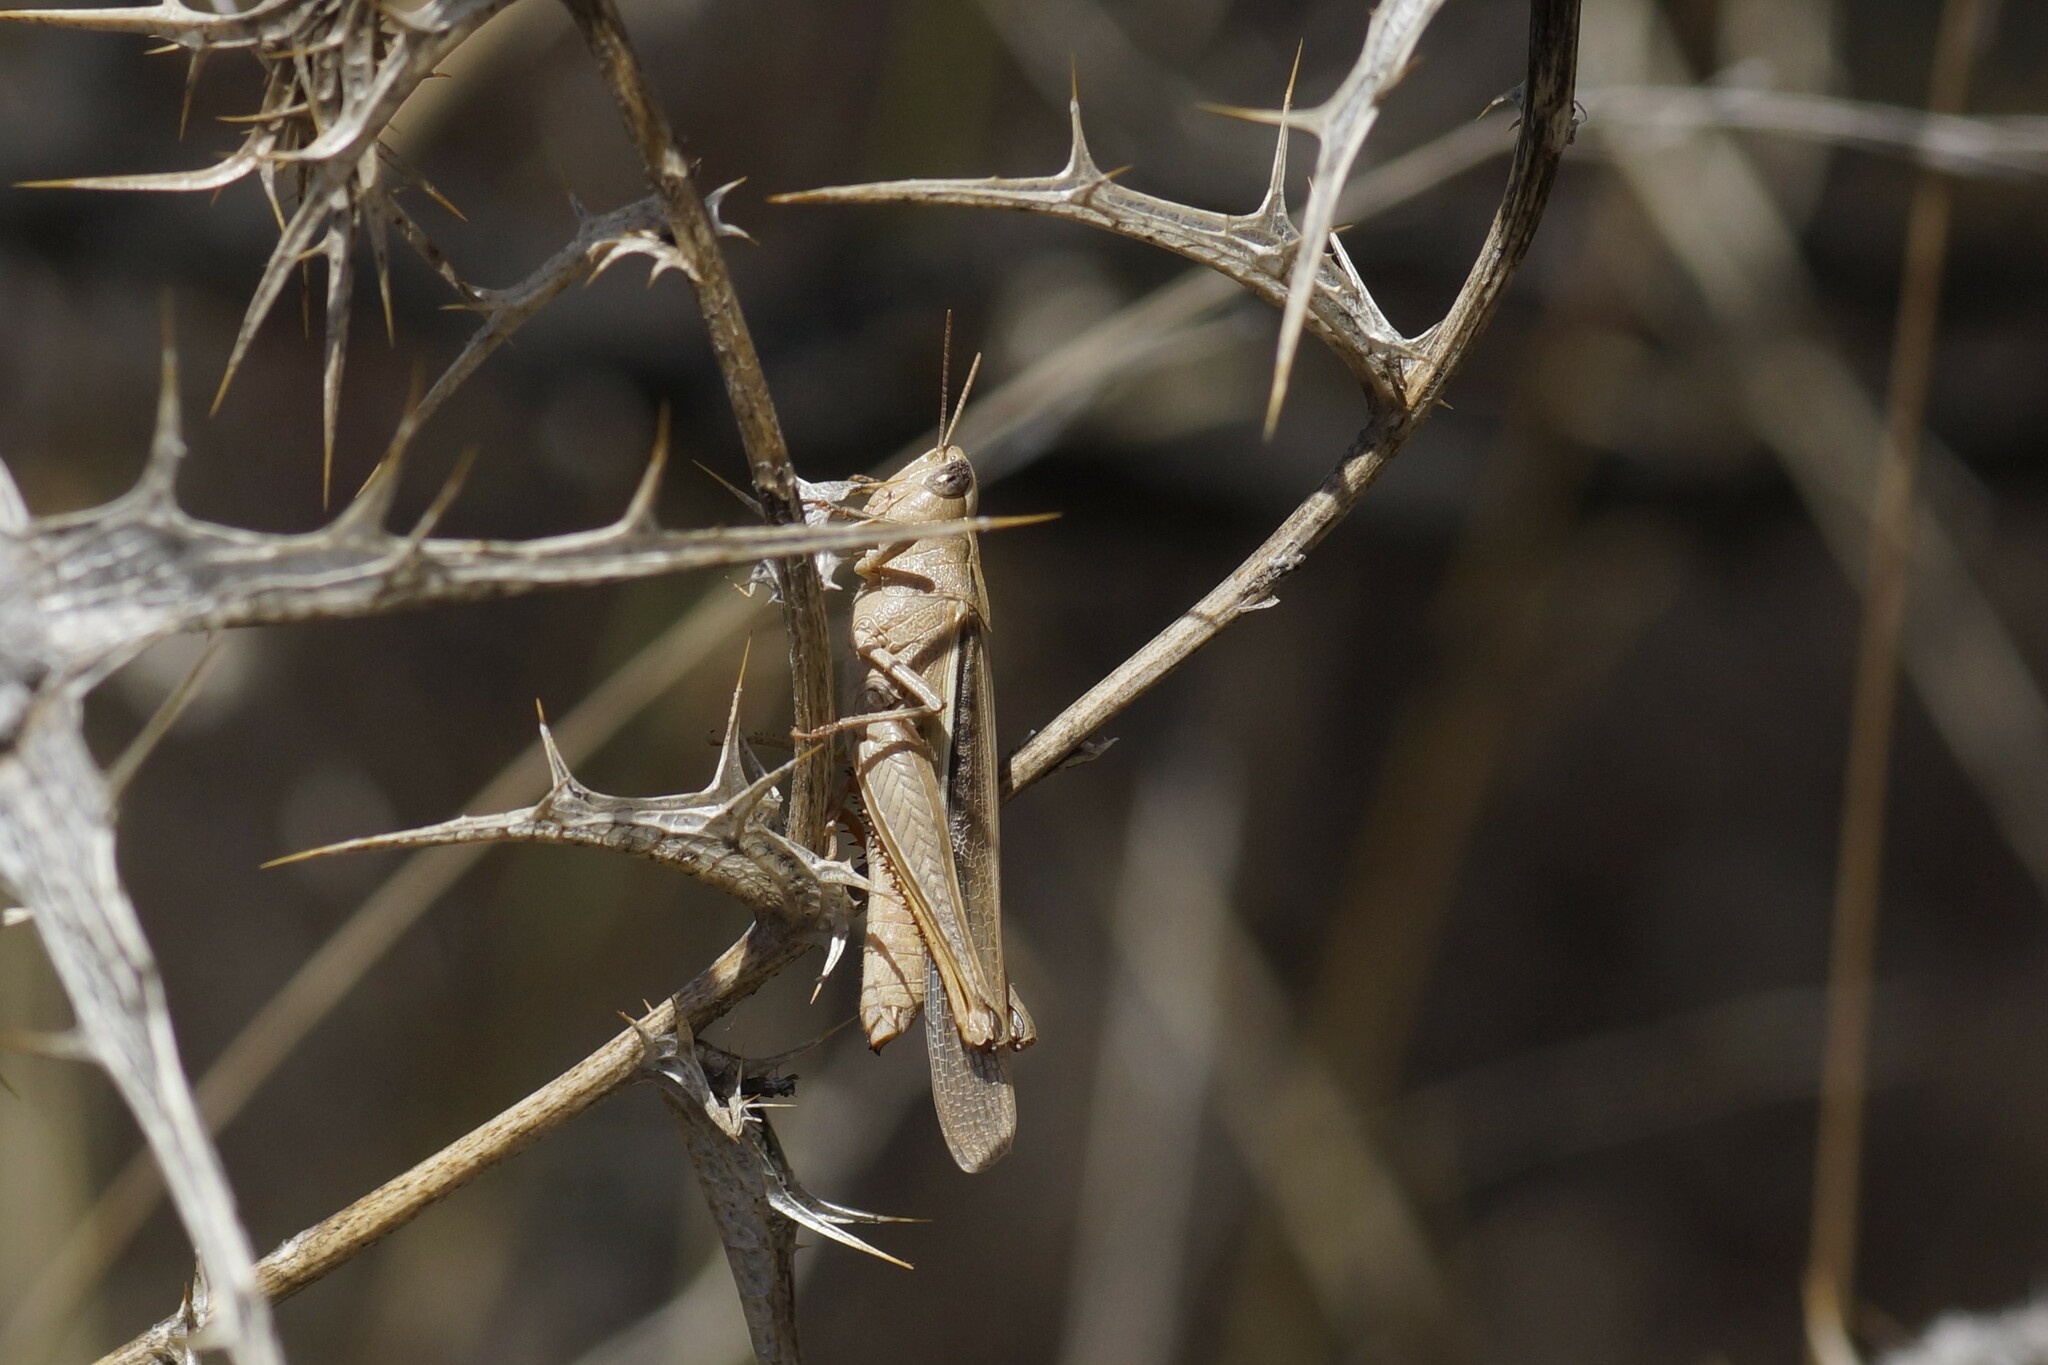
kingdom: Animalia
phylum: Arthropoda
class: Insecta
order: Orthoptera
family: Acrididae
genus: Schizobothrus
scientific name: Schizobothrus flavovittatus
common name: Disappearing grasshopper
